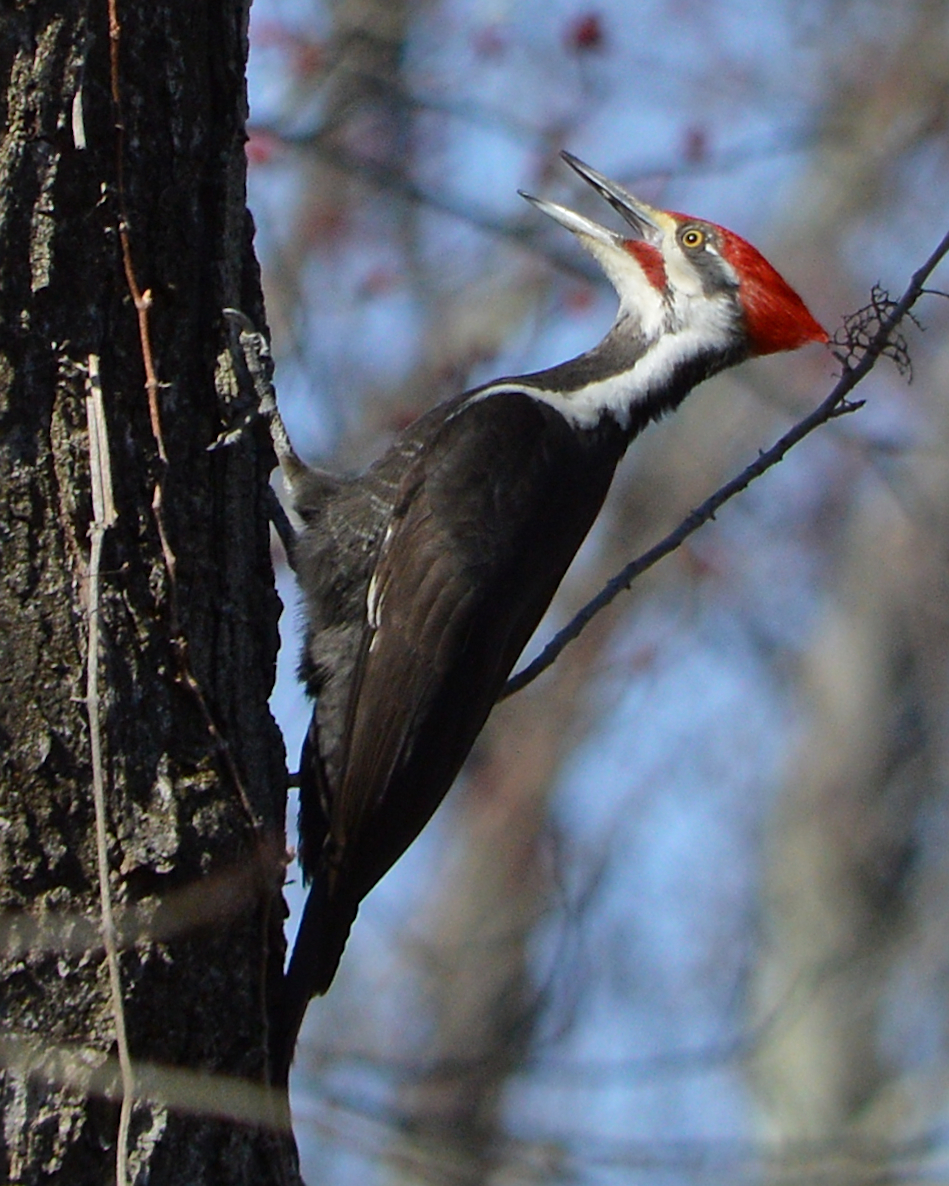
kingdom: Animalia
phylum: Chordata
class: Aves
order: Piciformes
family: Picidae
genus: Dryocopus
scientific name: Dryocopus pileatus
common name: Pileated woodpecker
